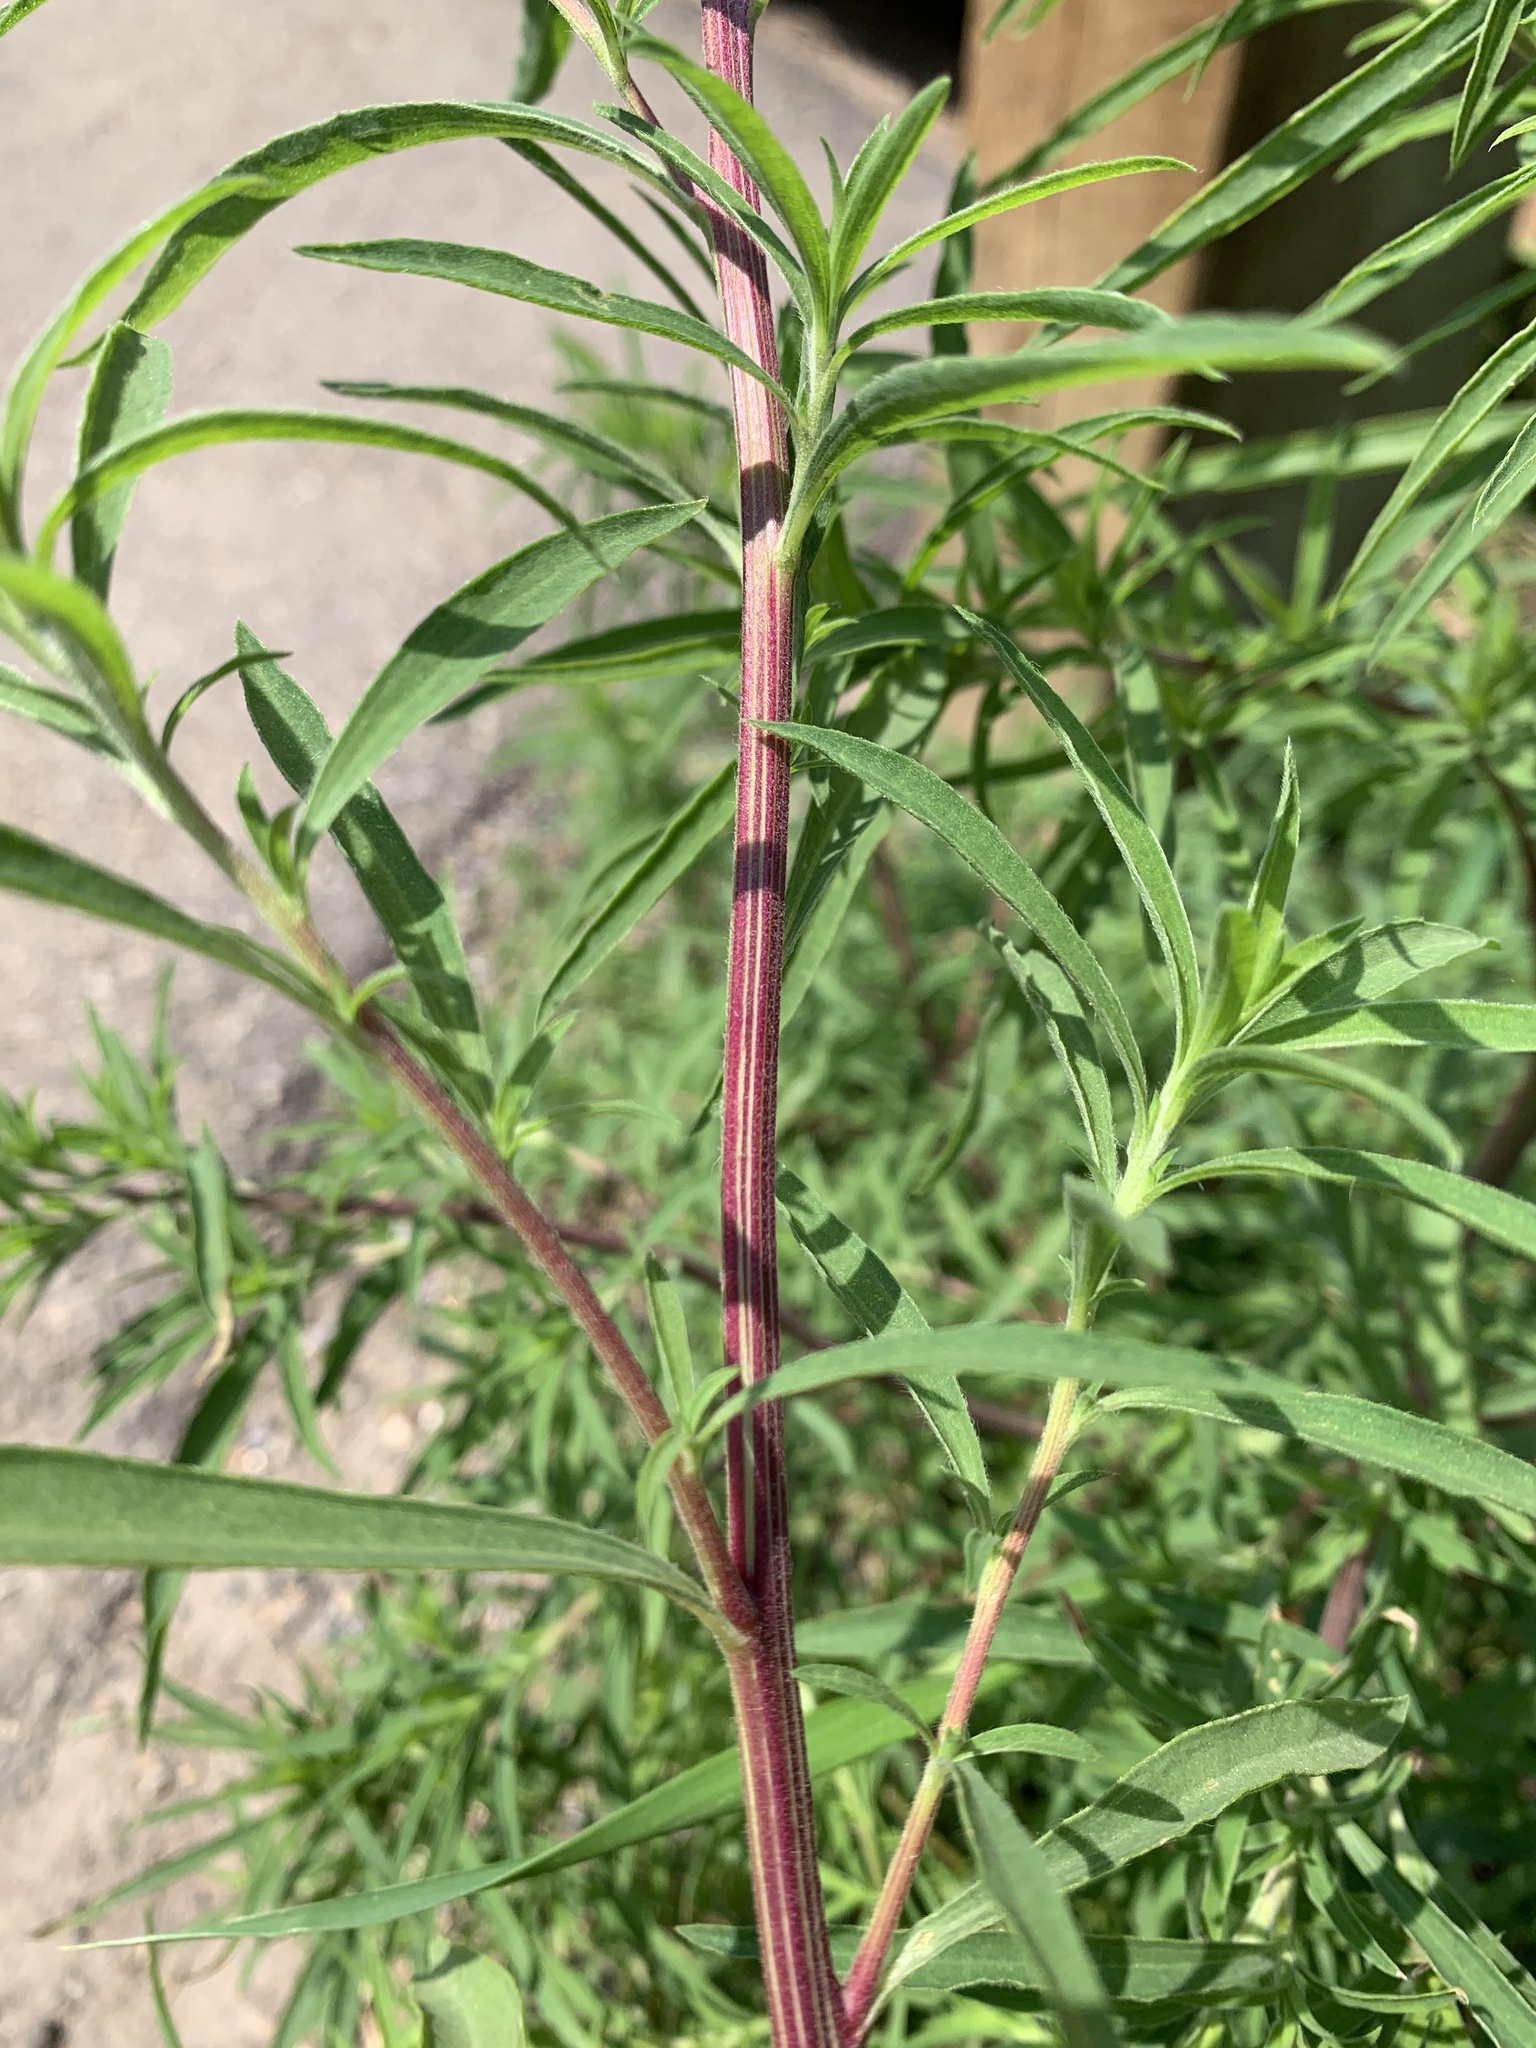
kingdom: Plantae
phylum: Tracheophyta
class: Magnoliopsida
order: Caryophyllales
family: Amaranthaceae
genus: Bassia
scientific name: Bassia scoparia
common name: Belvedere
